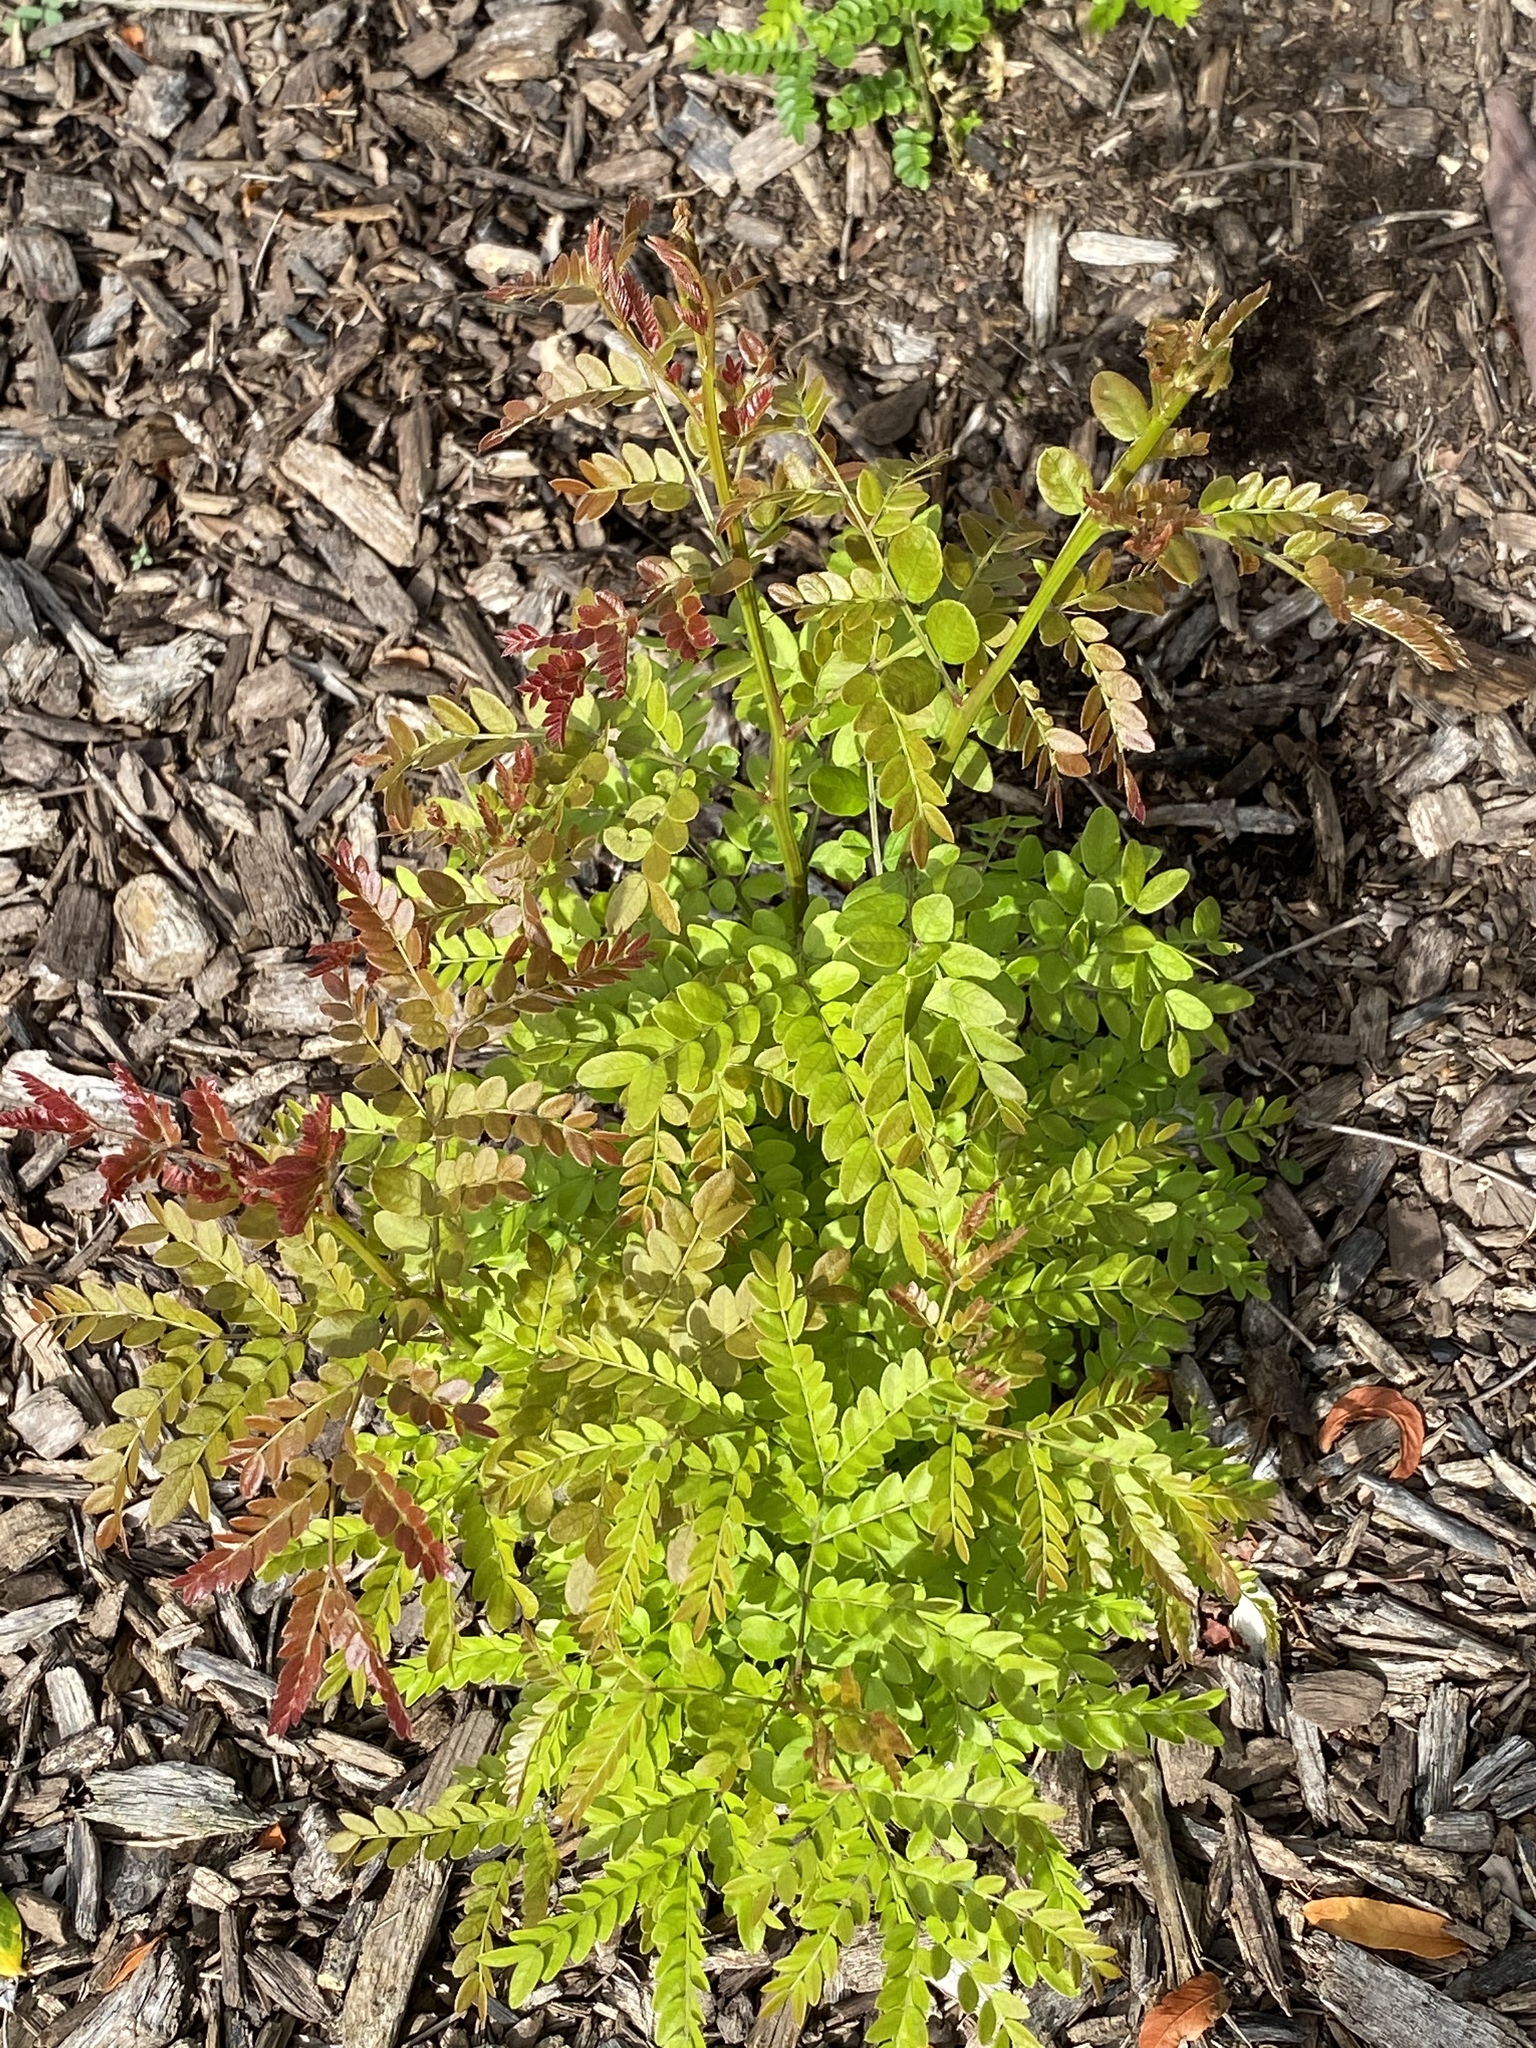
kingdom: Plantae
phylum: Tracheophyta
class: Magnoliopsida
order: Fabales
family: Fabaceae
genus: Gleditsia
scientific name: Gleditsia triacanthos
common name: Common honeylocust
